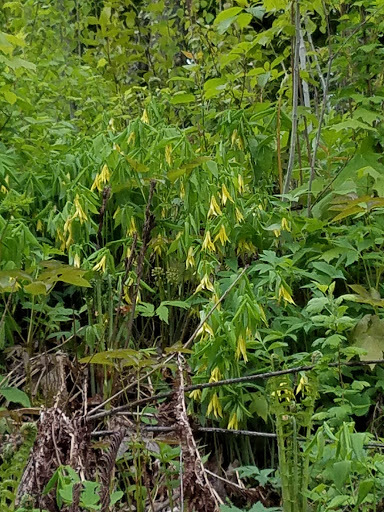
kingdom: Plantae
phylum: Tracheophyta
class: Liliopsida
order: Liliales
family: Colchicaceae
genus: Uvularia
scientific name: Uvularia grandiflora
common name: Bellwort
